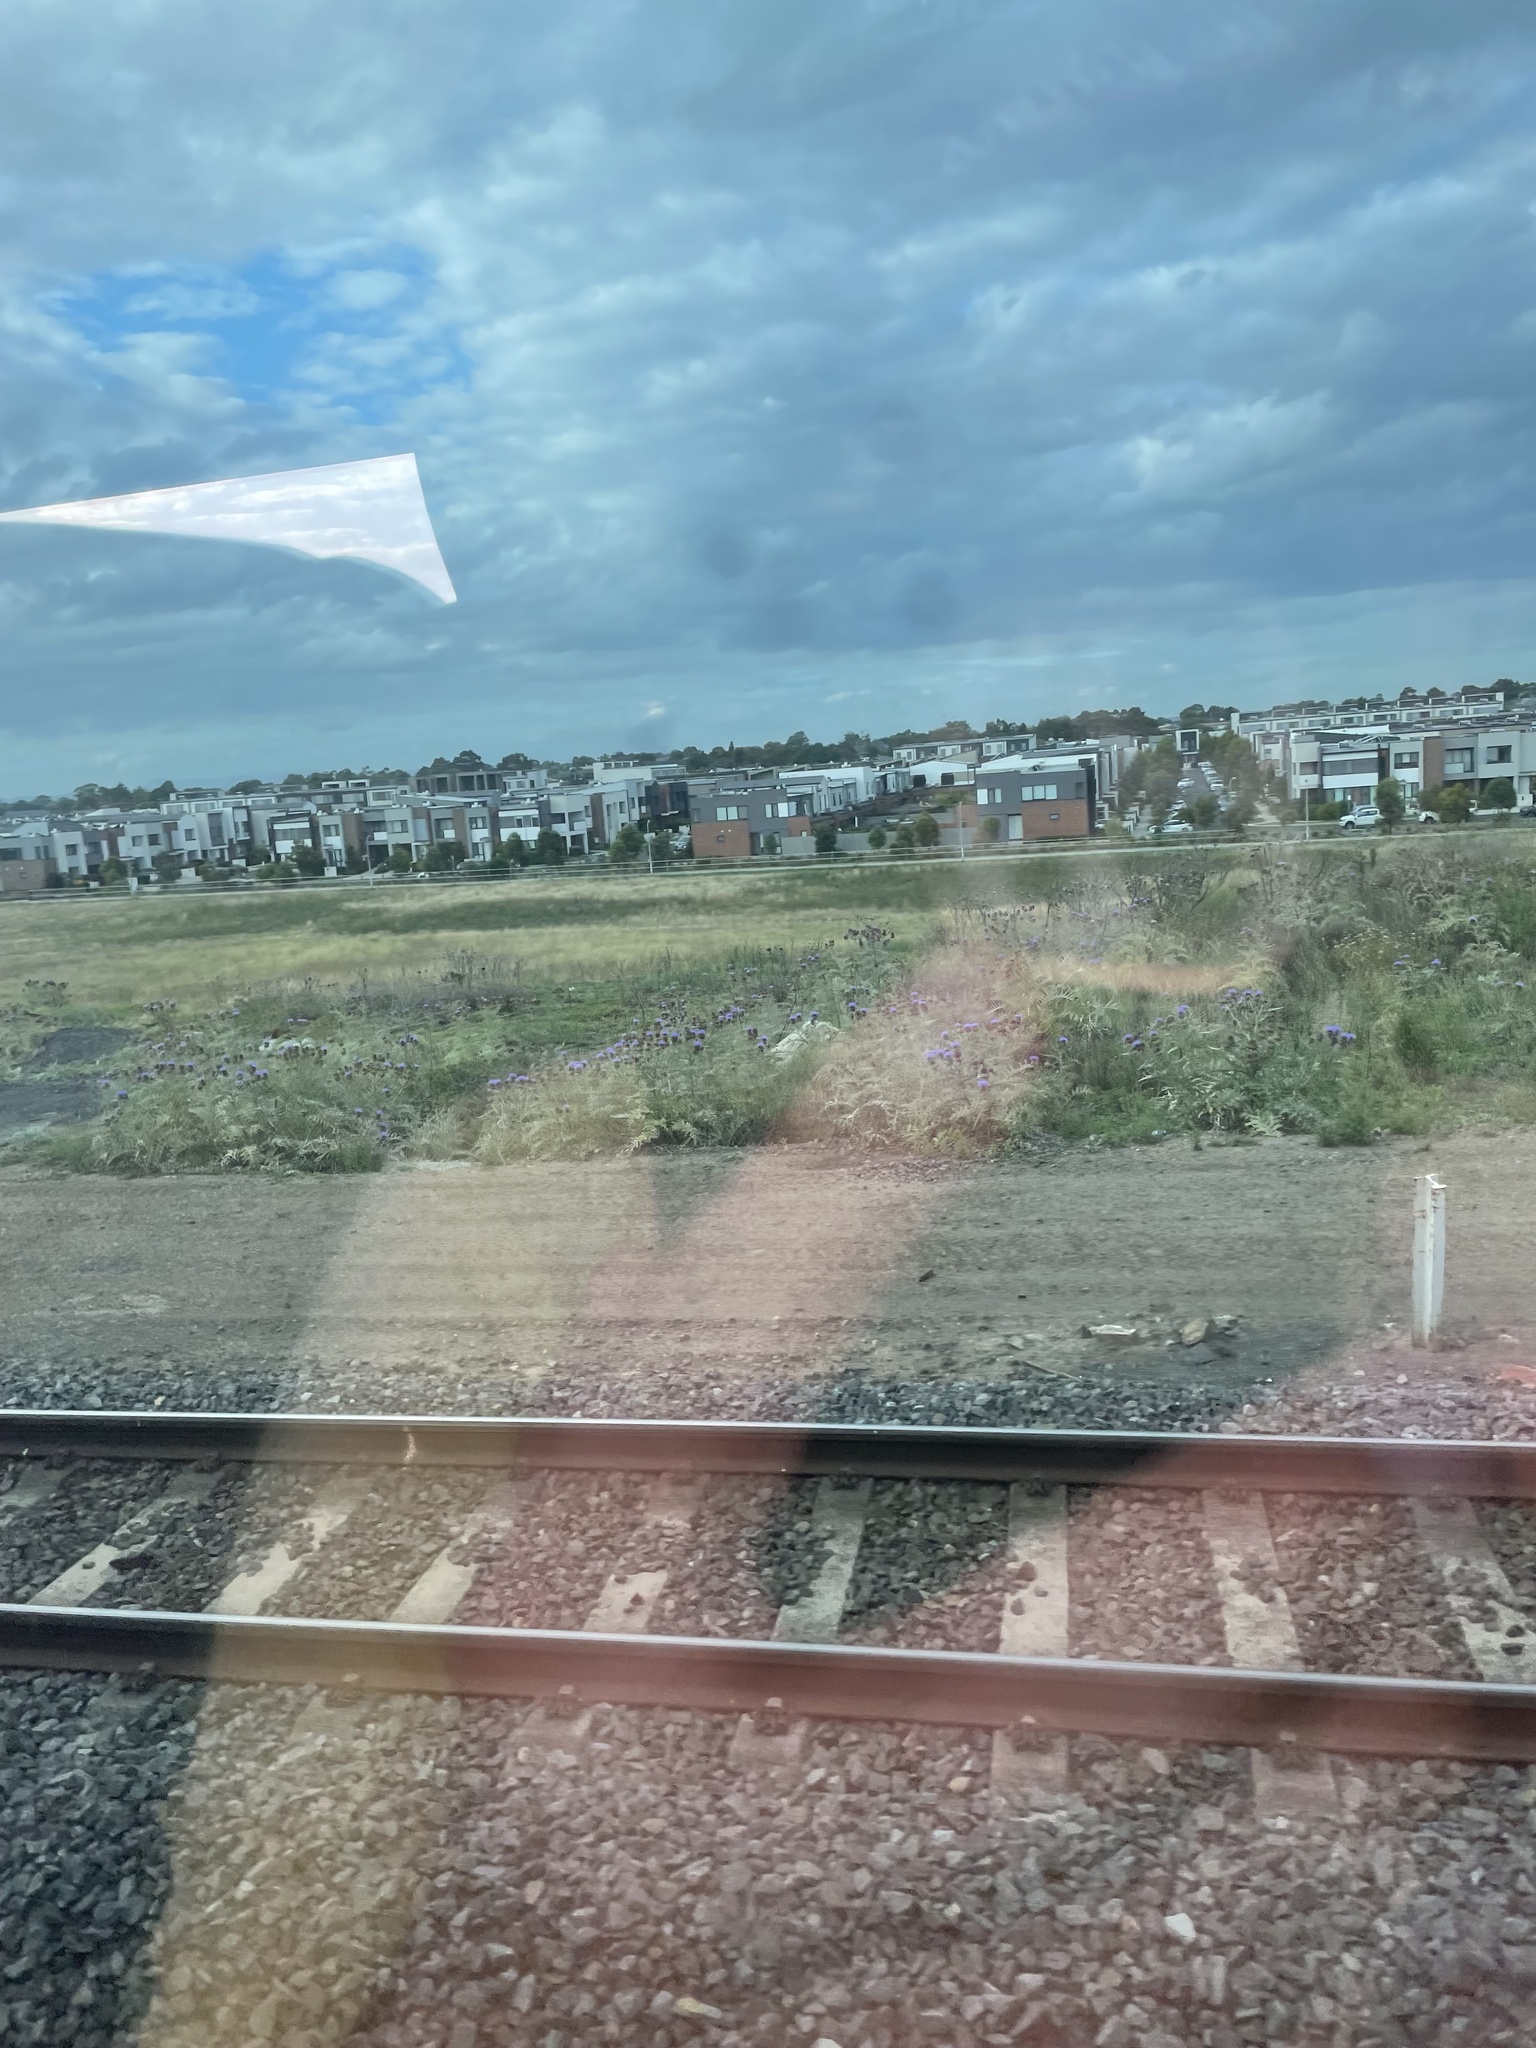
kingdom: Plantae
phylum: Tracheophyta
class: Magnoliopsida
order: Asterales
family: Asteraceae
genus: Cynara
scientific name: Cynara cardunculus
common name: Globe artichoke
